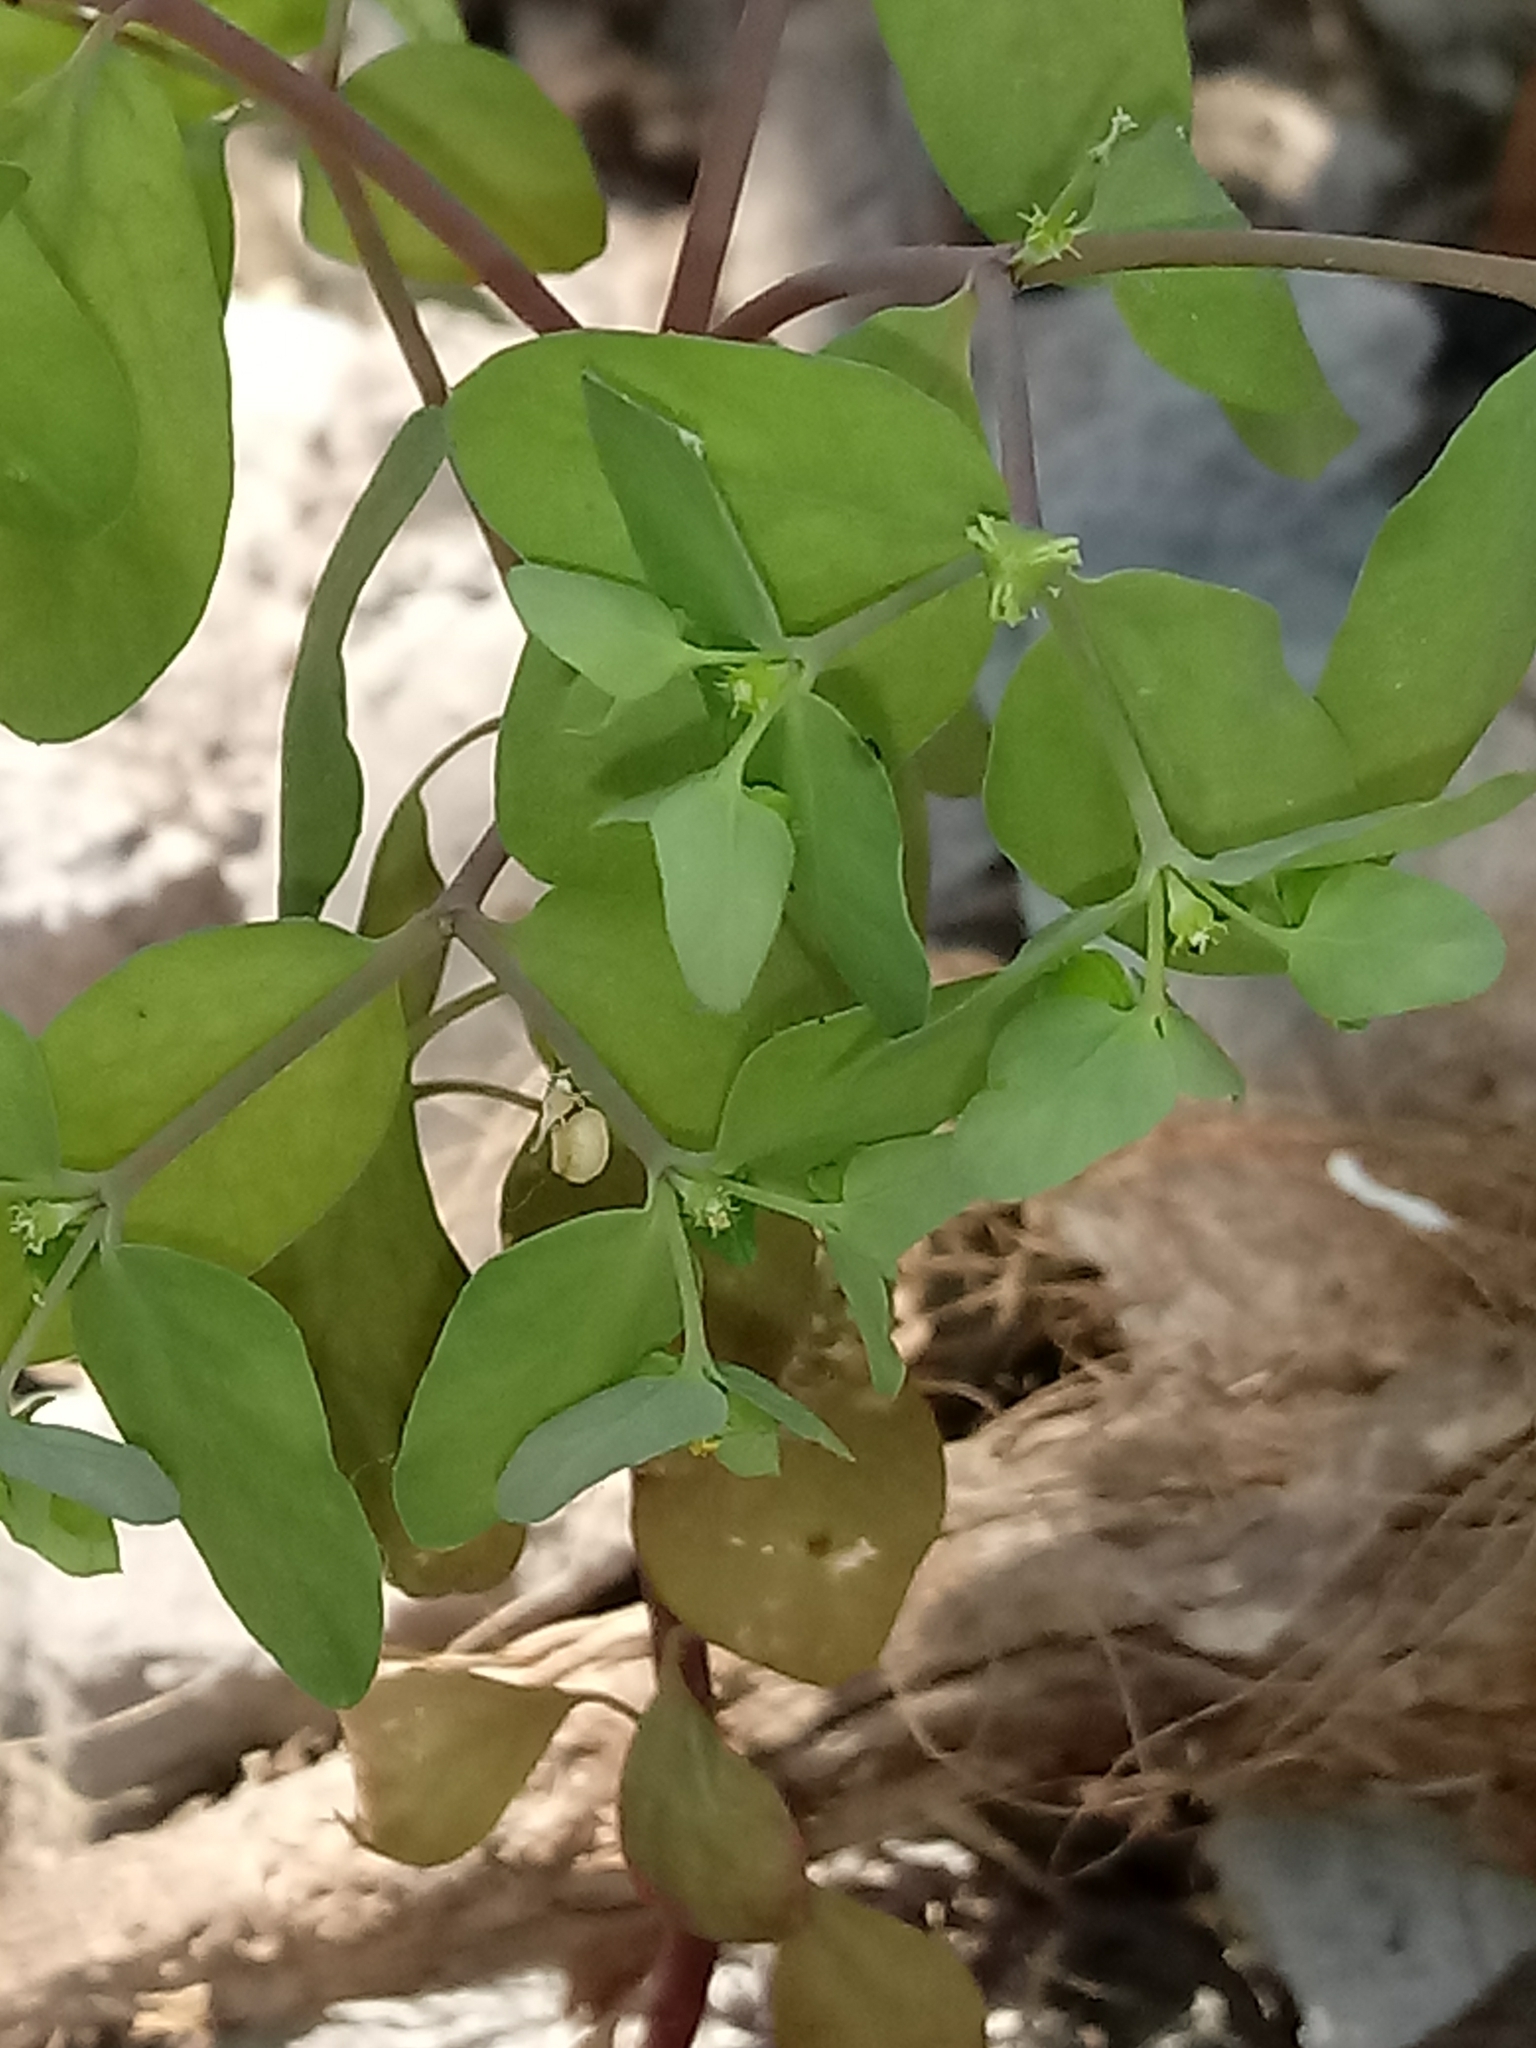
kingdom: Plantae
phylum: Tracheophyta
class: Magnoliopsida
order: Malpighiales
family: Euphorbiaceae
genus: Euphorbia
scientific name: Euphorbia peplus
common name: Petty spurge
